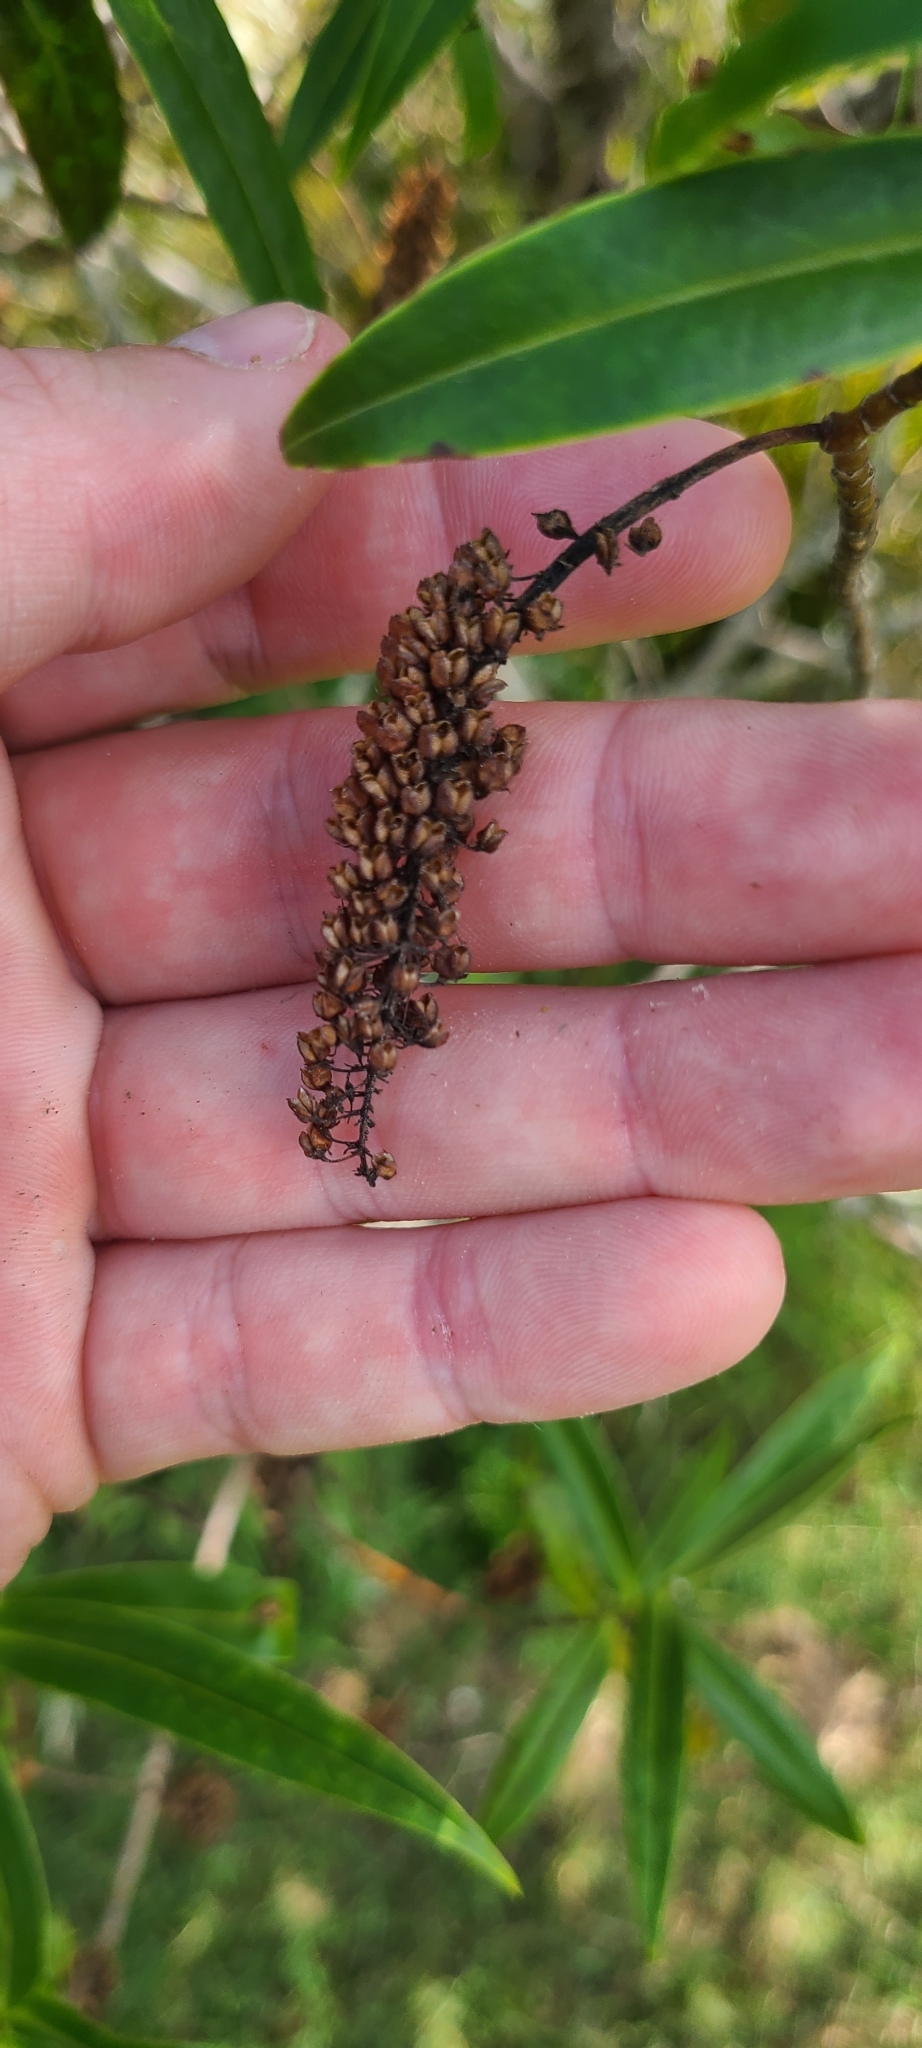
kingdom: Plantae
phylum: Tracheophyta
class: Magnoliopsida
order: Lamiales
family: Plantaginaceae
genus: Veronica
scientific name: Veronica salicifolia
